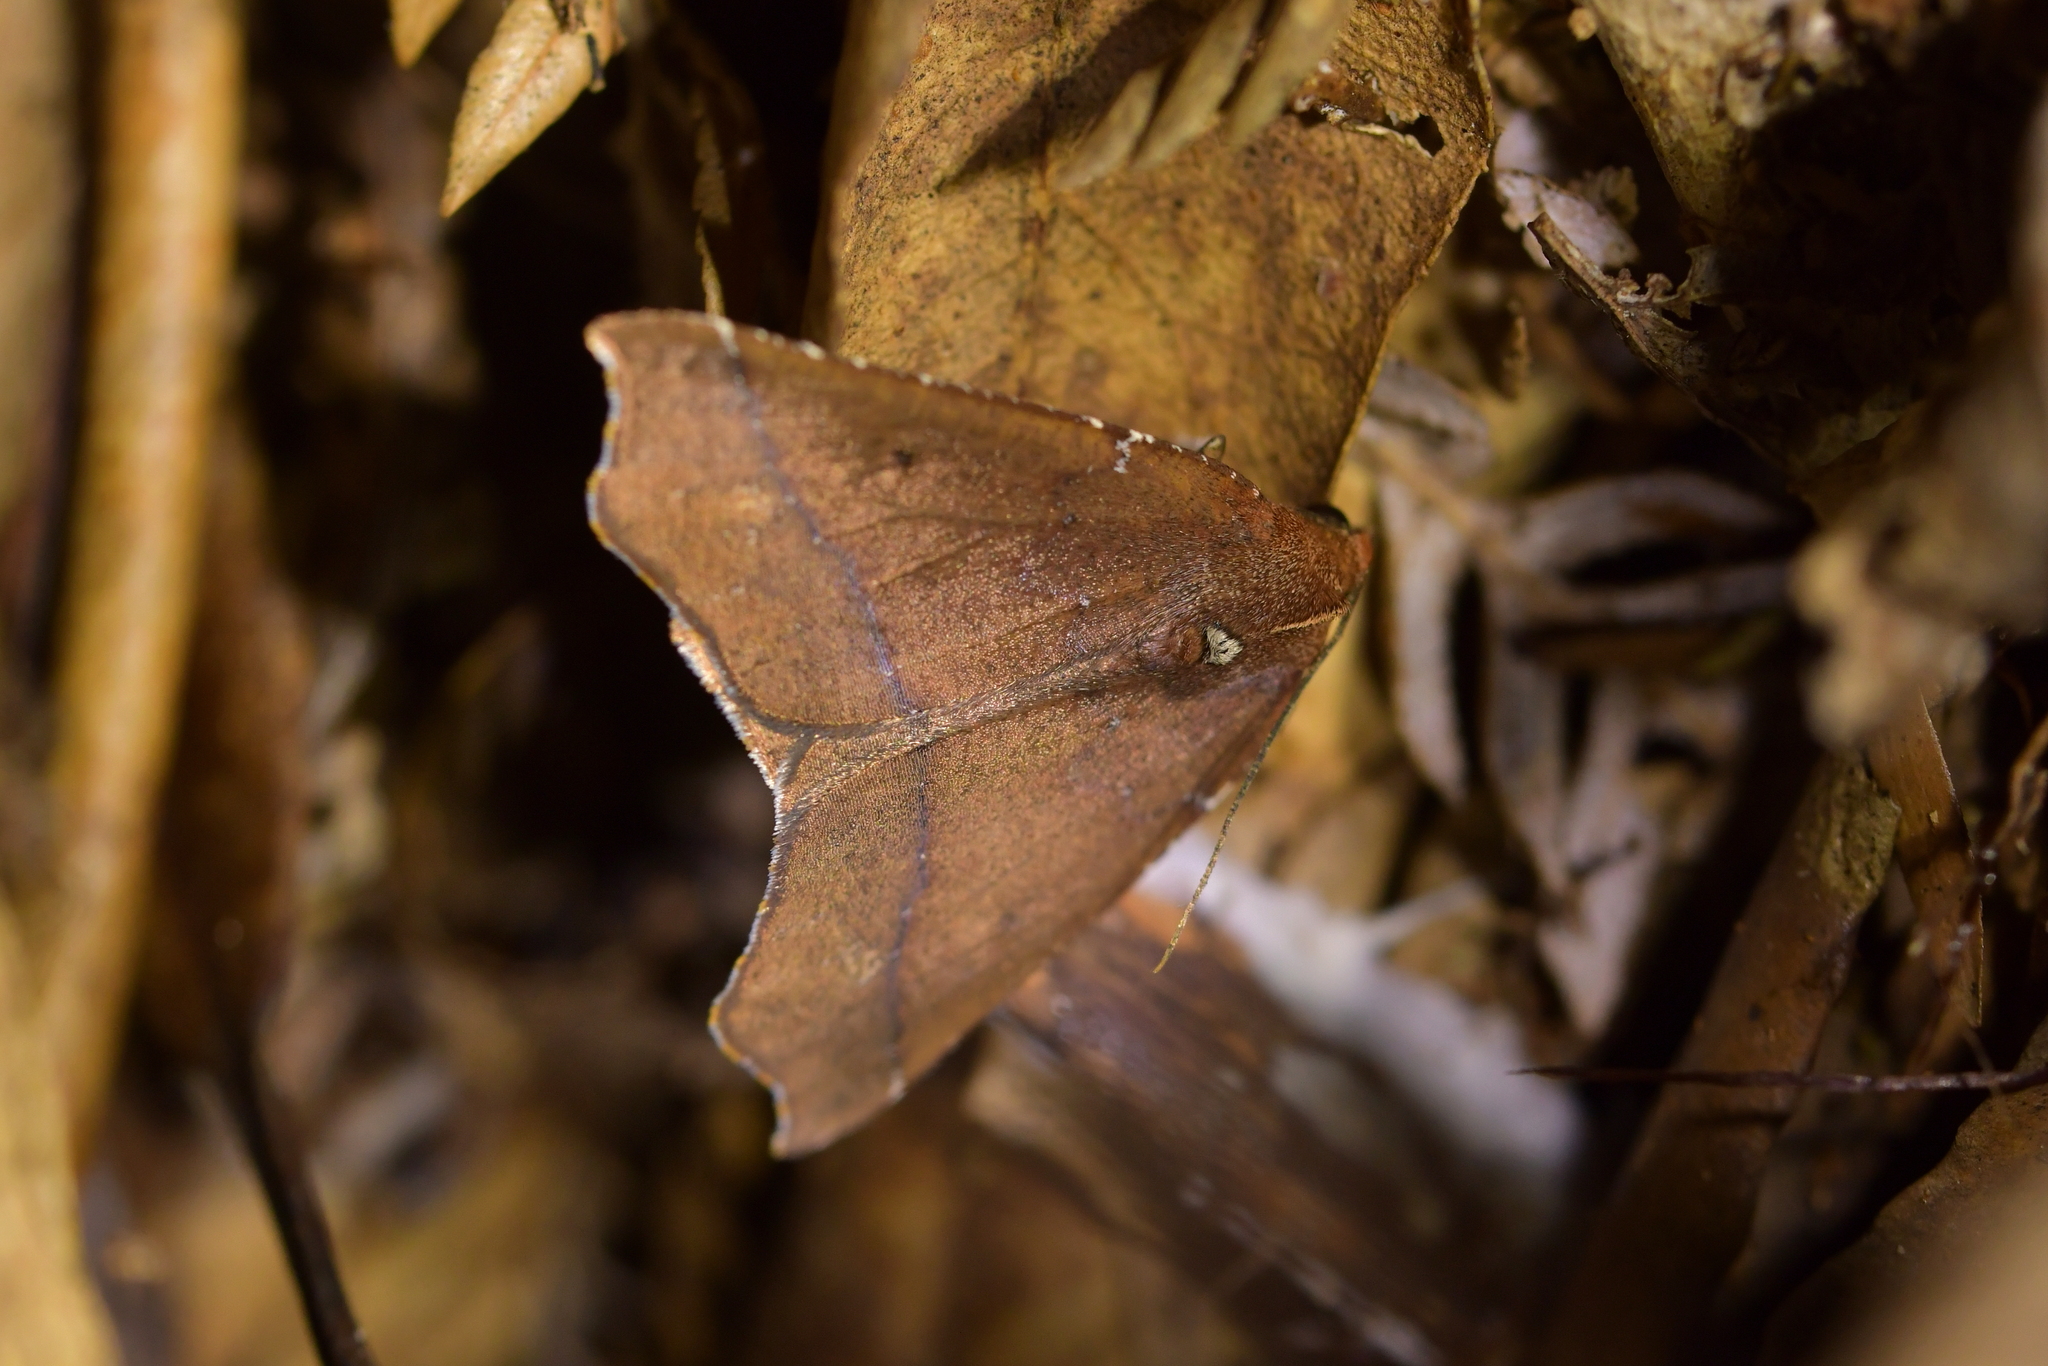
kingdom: Animalia
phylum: Arthropoda
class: Insecta
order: Lepidoptera
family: Geometridae
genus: Ischalis
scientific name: Ischalis nelsonaria
